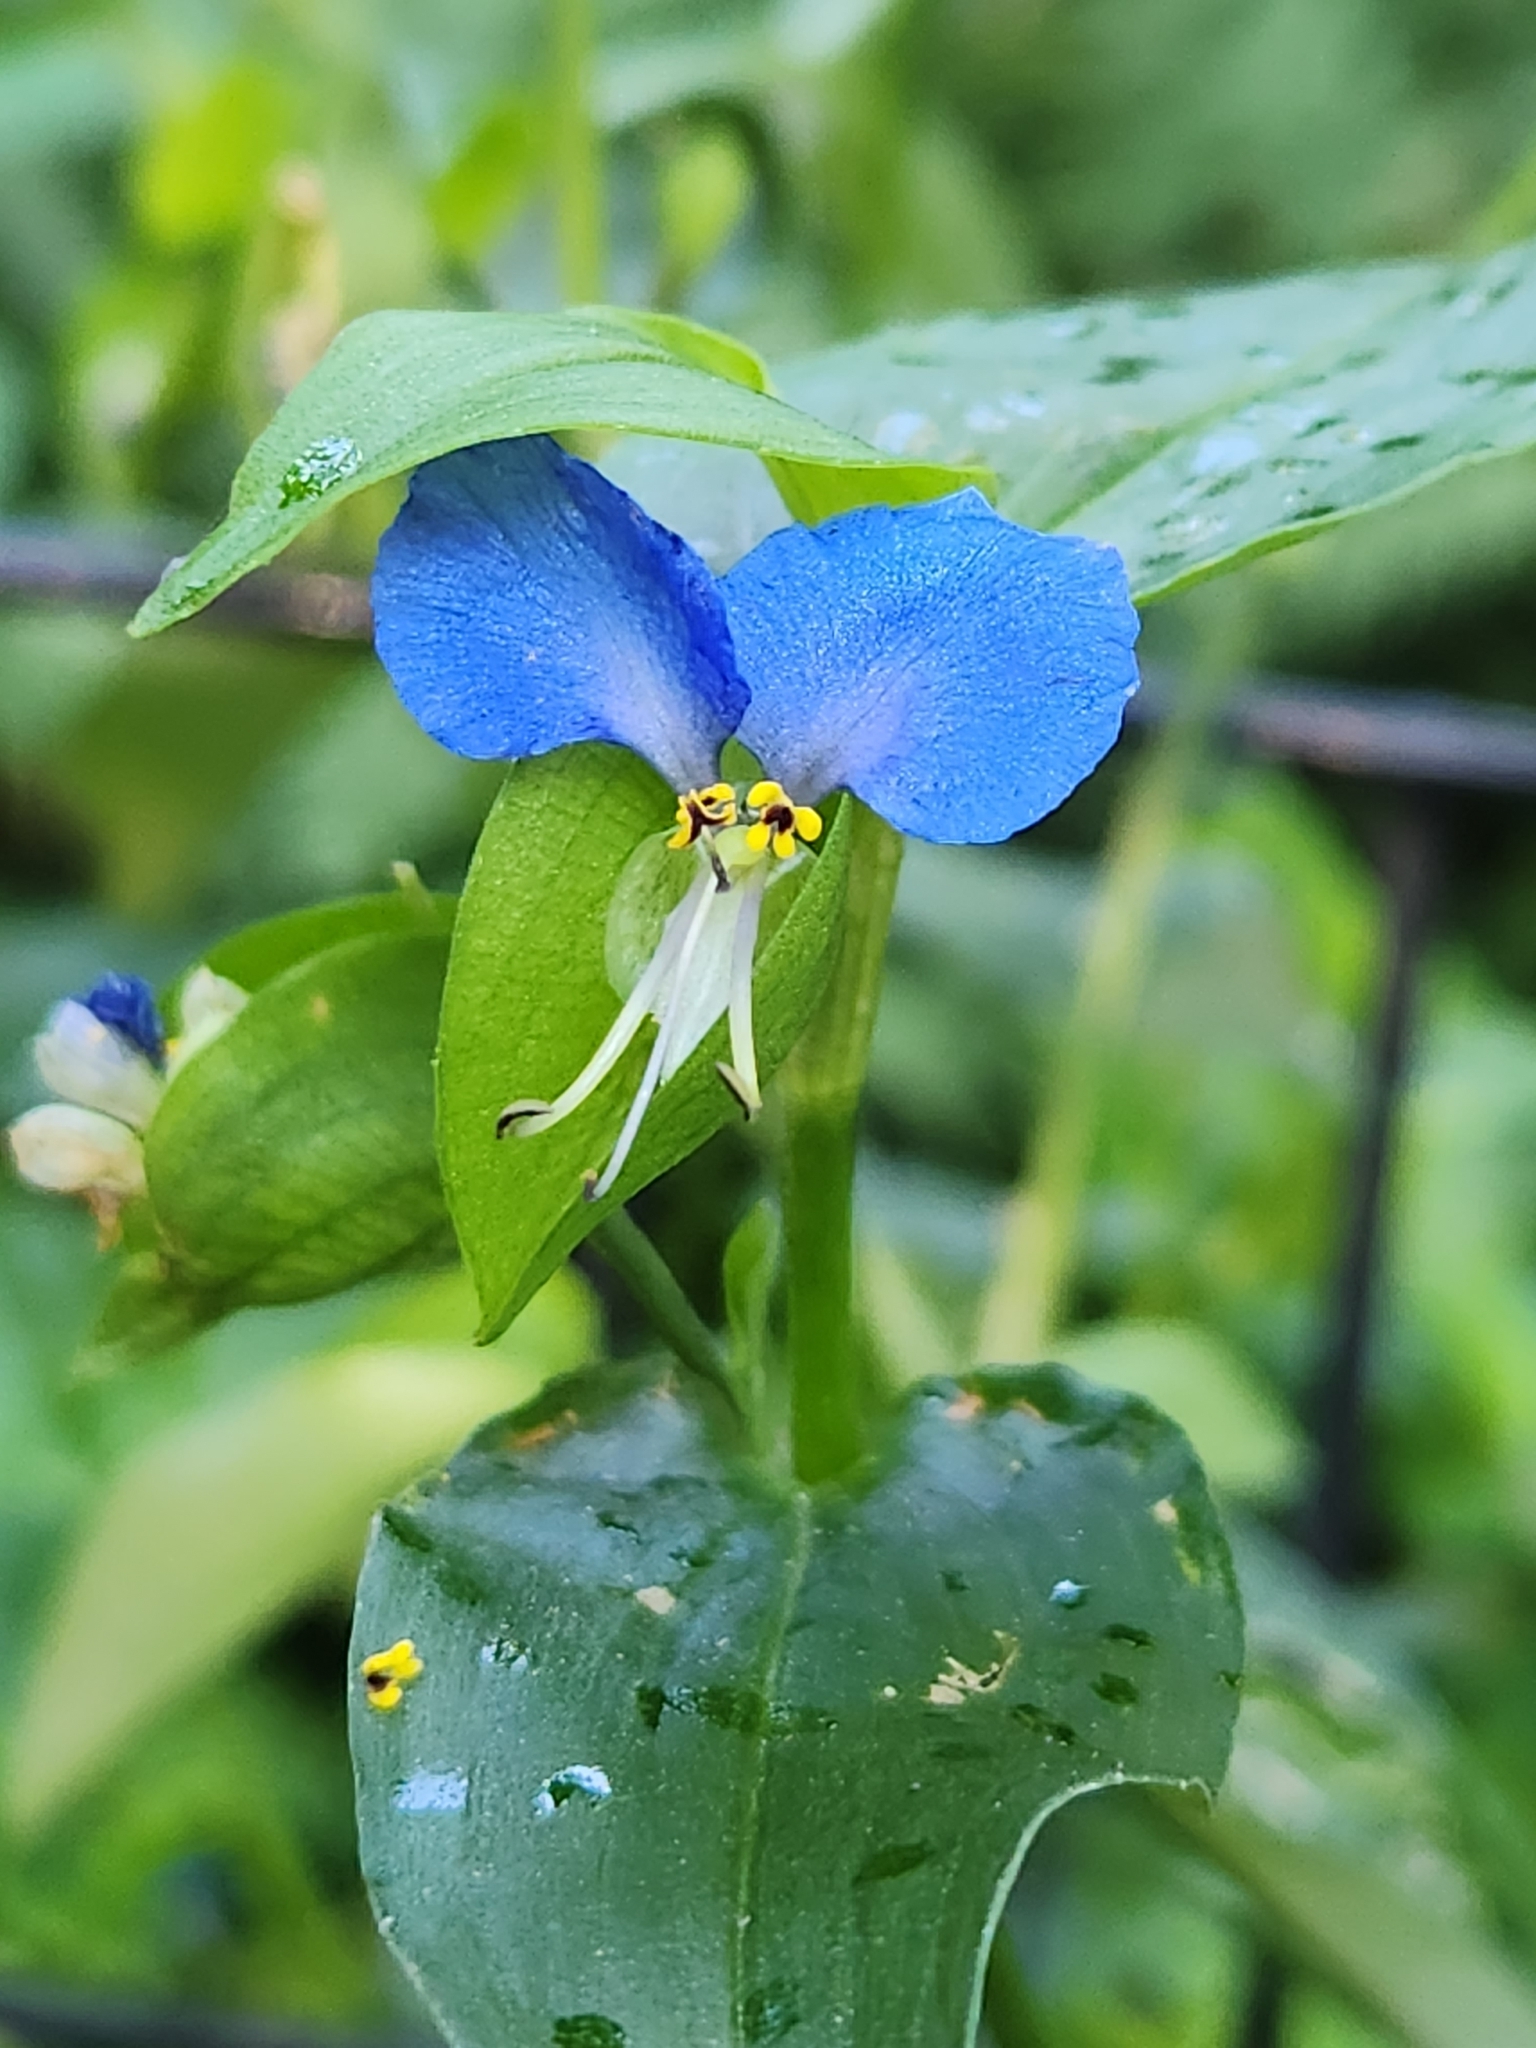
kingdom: Plantae
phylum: Tracheophyta
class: Liliopsida
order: Commelinales
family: Commelinaceae
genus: Commelina
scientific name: Commelina communis
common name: Asiatic dayflower
